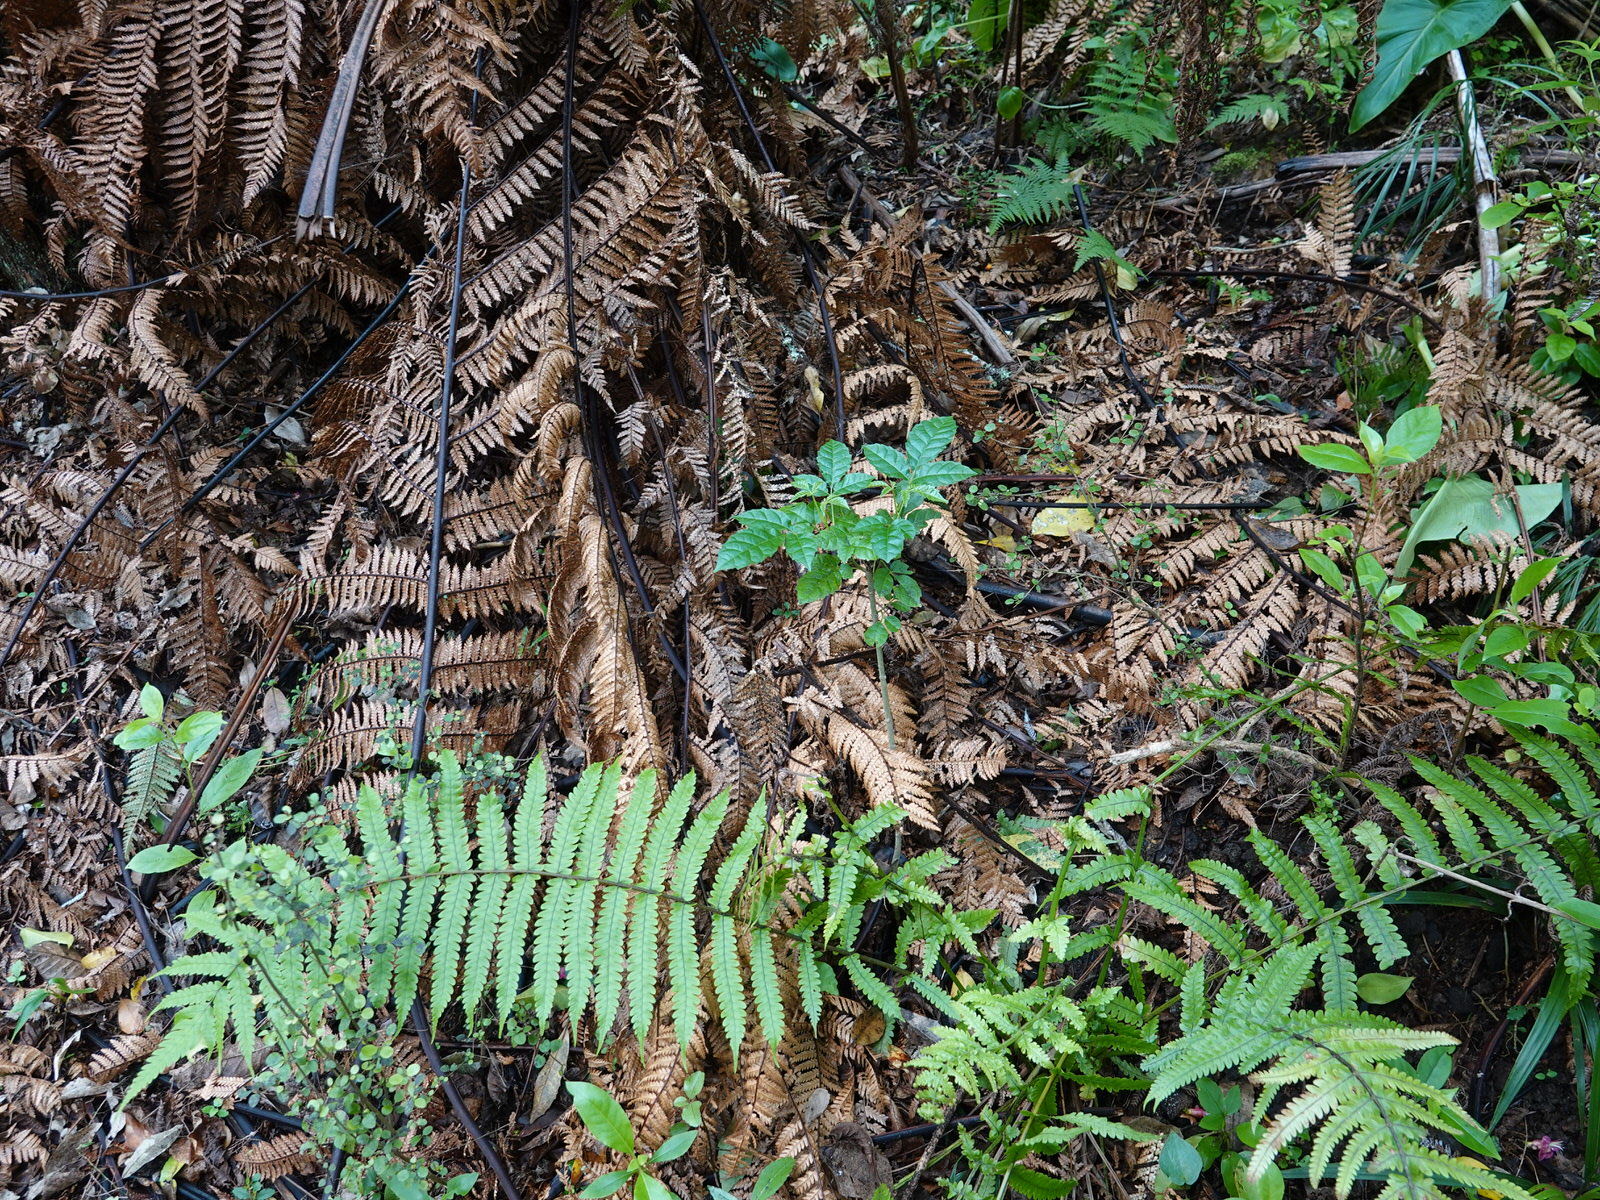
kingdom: Plantae
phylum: Tracheophyta
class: Magnoliopsida
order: Lamiales
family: Lamiaceae
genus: Vitex
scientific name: Vitex lucens
